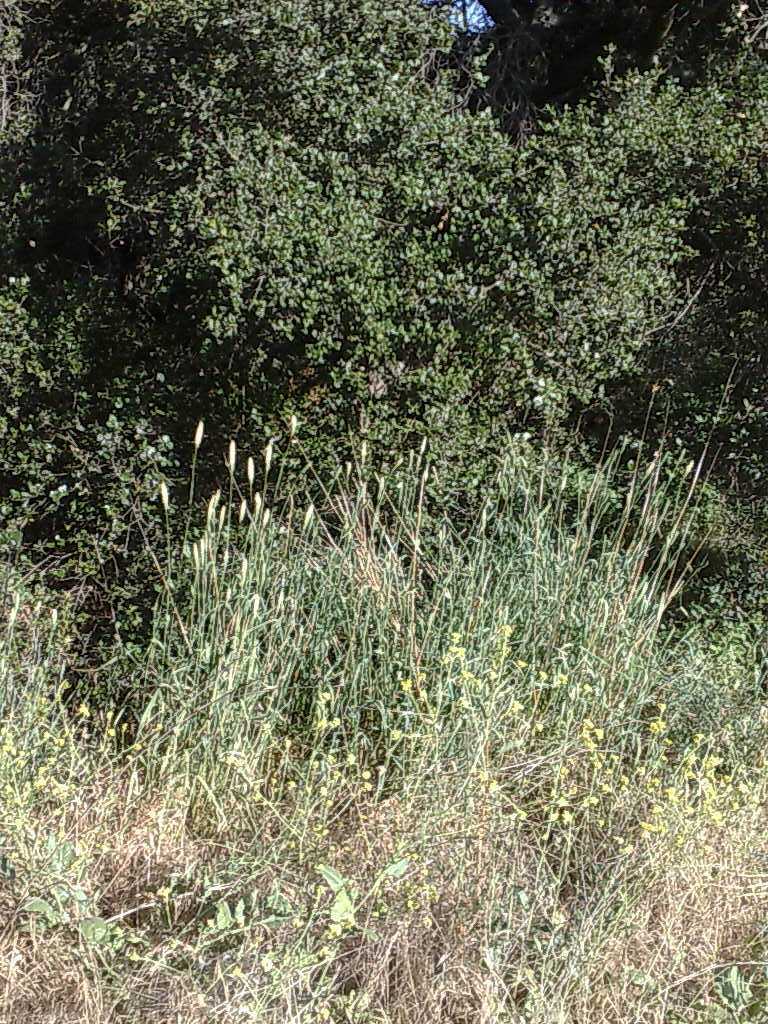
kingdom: Plantae
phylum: Tracheophyta
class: Magnoliopsida
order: Fagales
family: Fagaceae
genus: Quercus
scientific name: Quercus agrifolia
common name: California live oak
